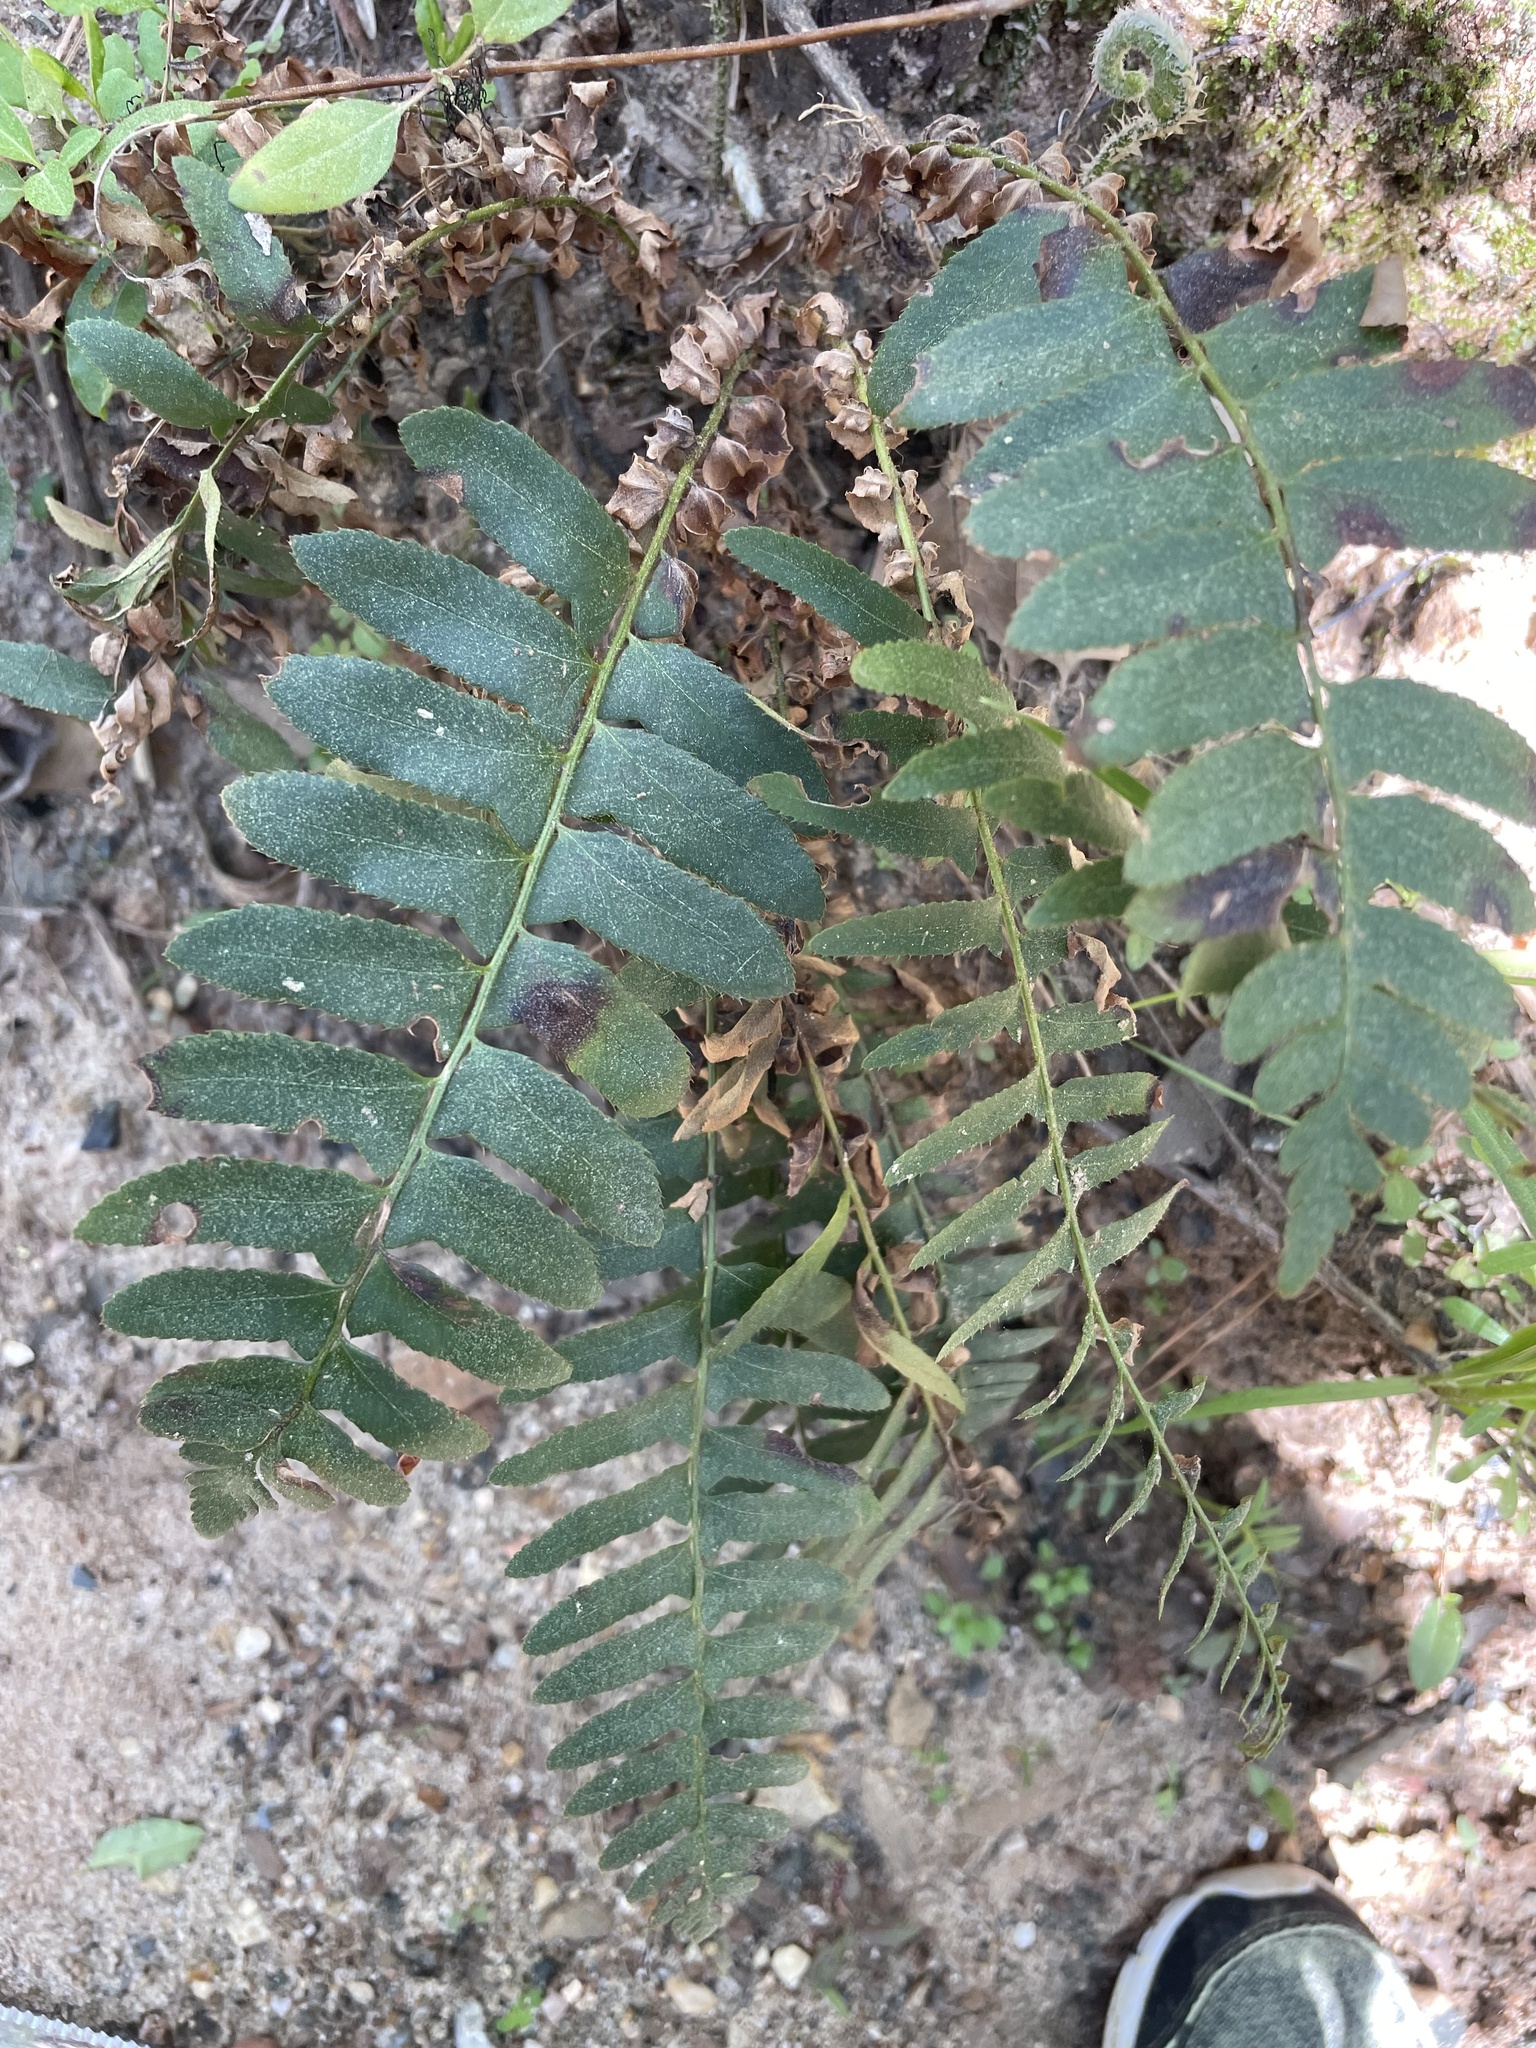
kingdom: Plantae
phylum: Tracheophyta
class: Polypodiopsida
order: Polypodiales
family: Dryopteridaceae
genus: Polystichum
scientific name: Polystichum acrostichoides
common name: Christmas fern
